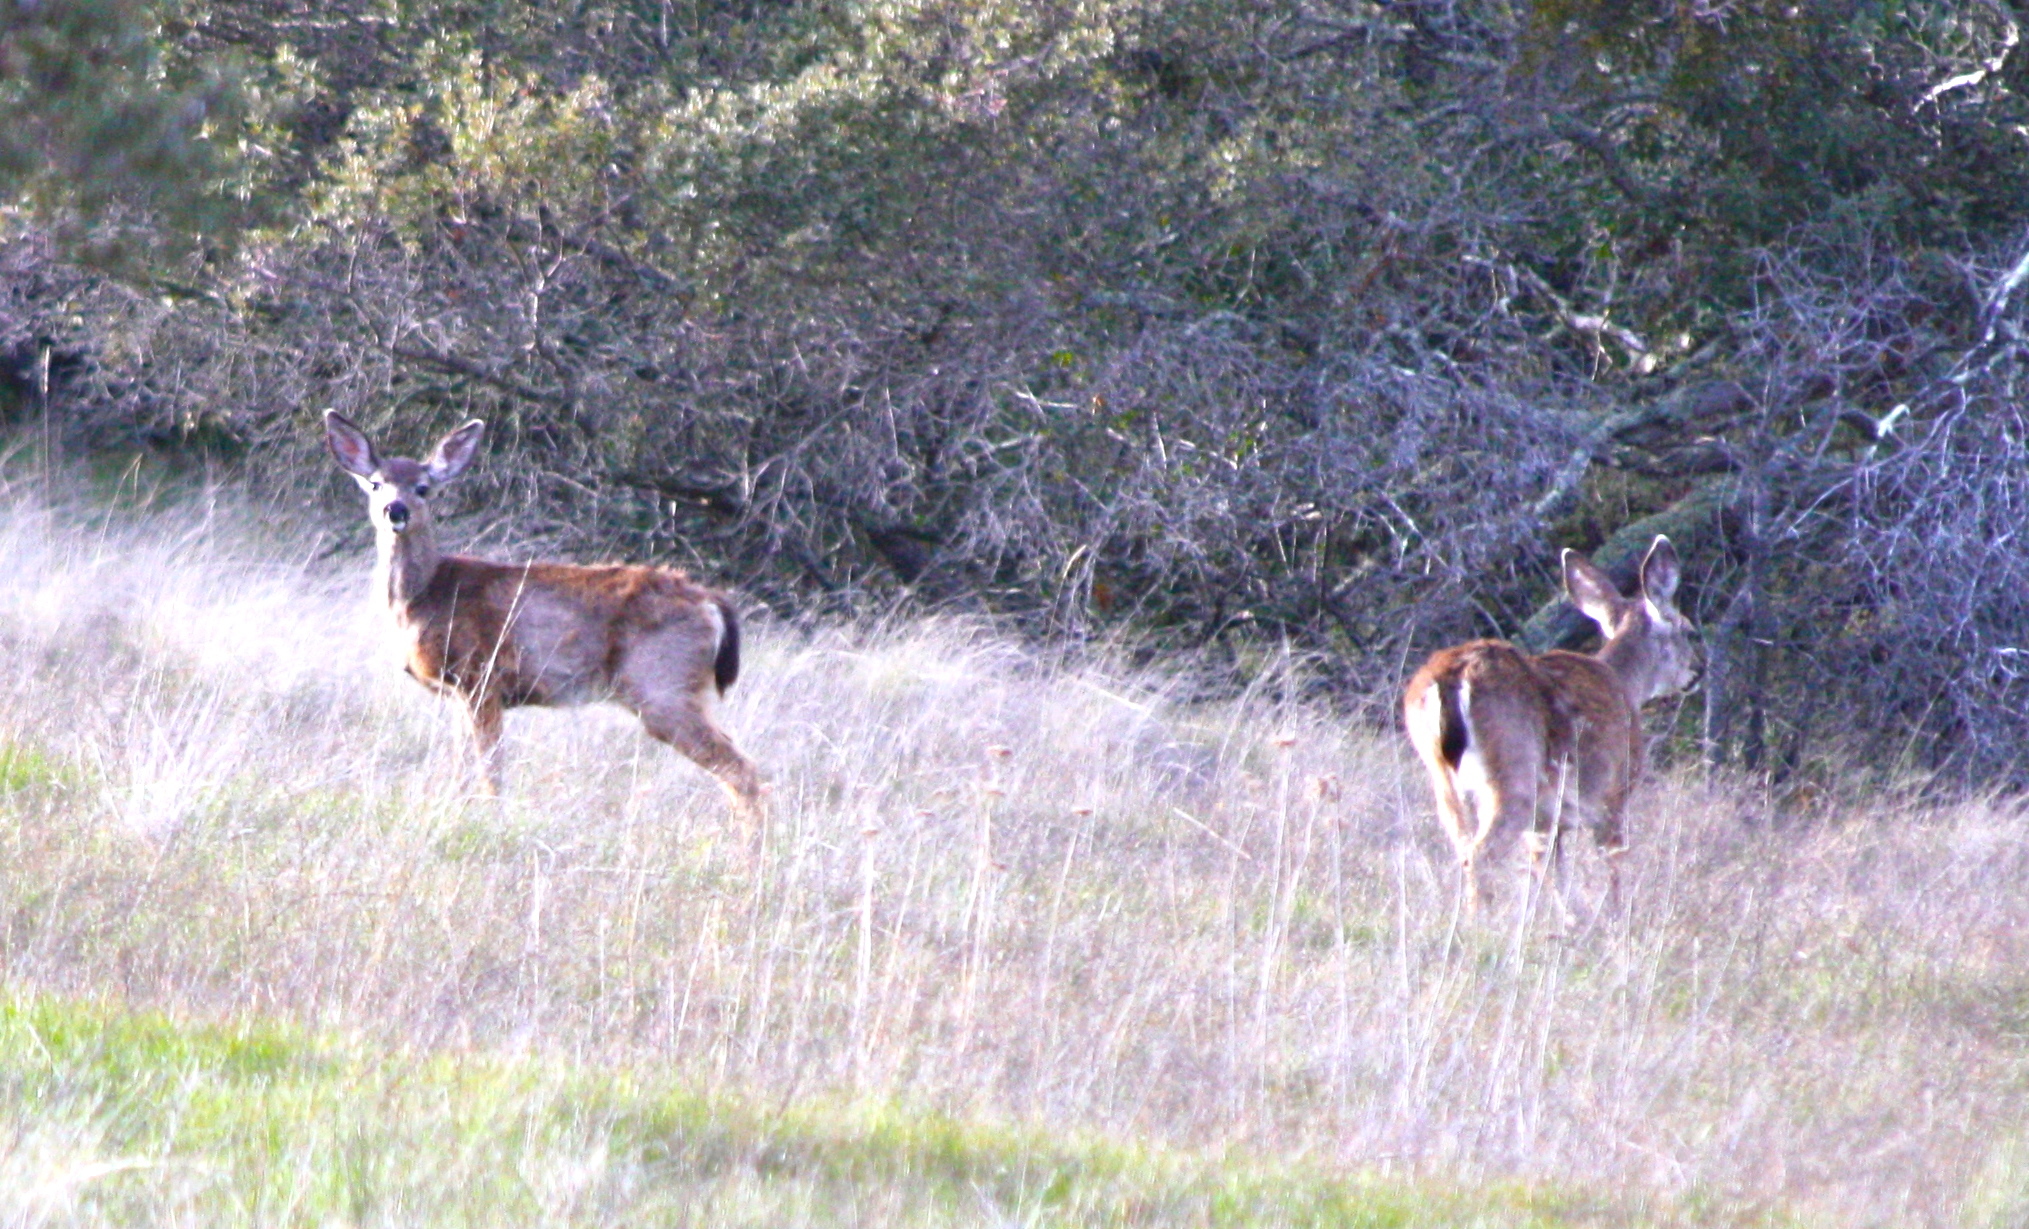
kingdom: Animalia
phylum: Chordata
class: Mammalia
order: Artiodactyla
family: Cervidae
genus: Odocoileus
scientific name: Odocoileus hemionus
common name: Mule deer
